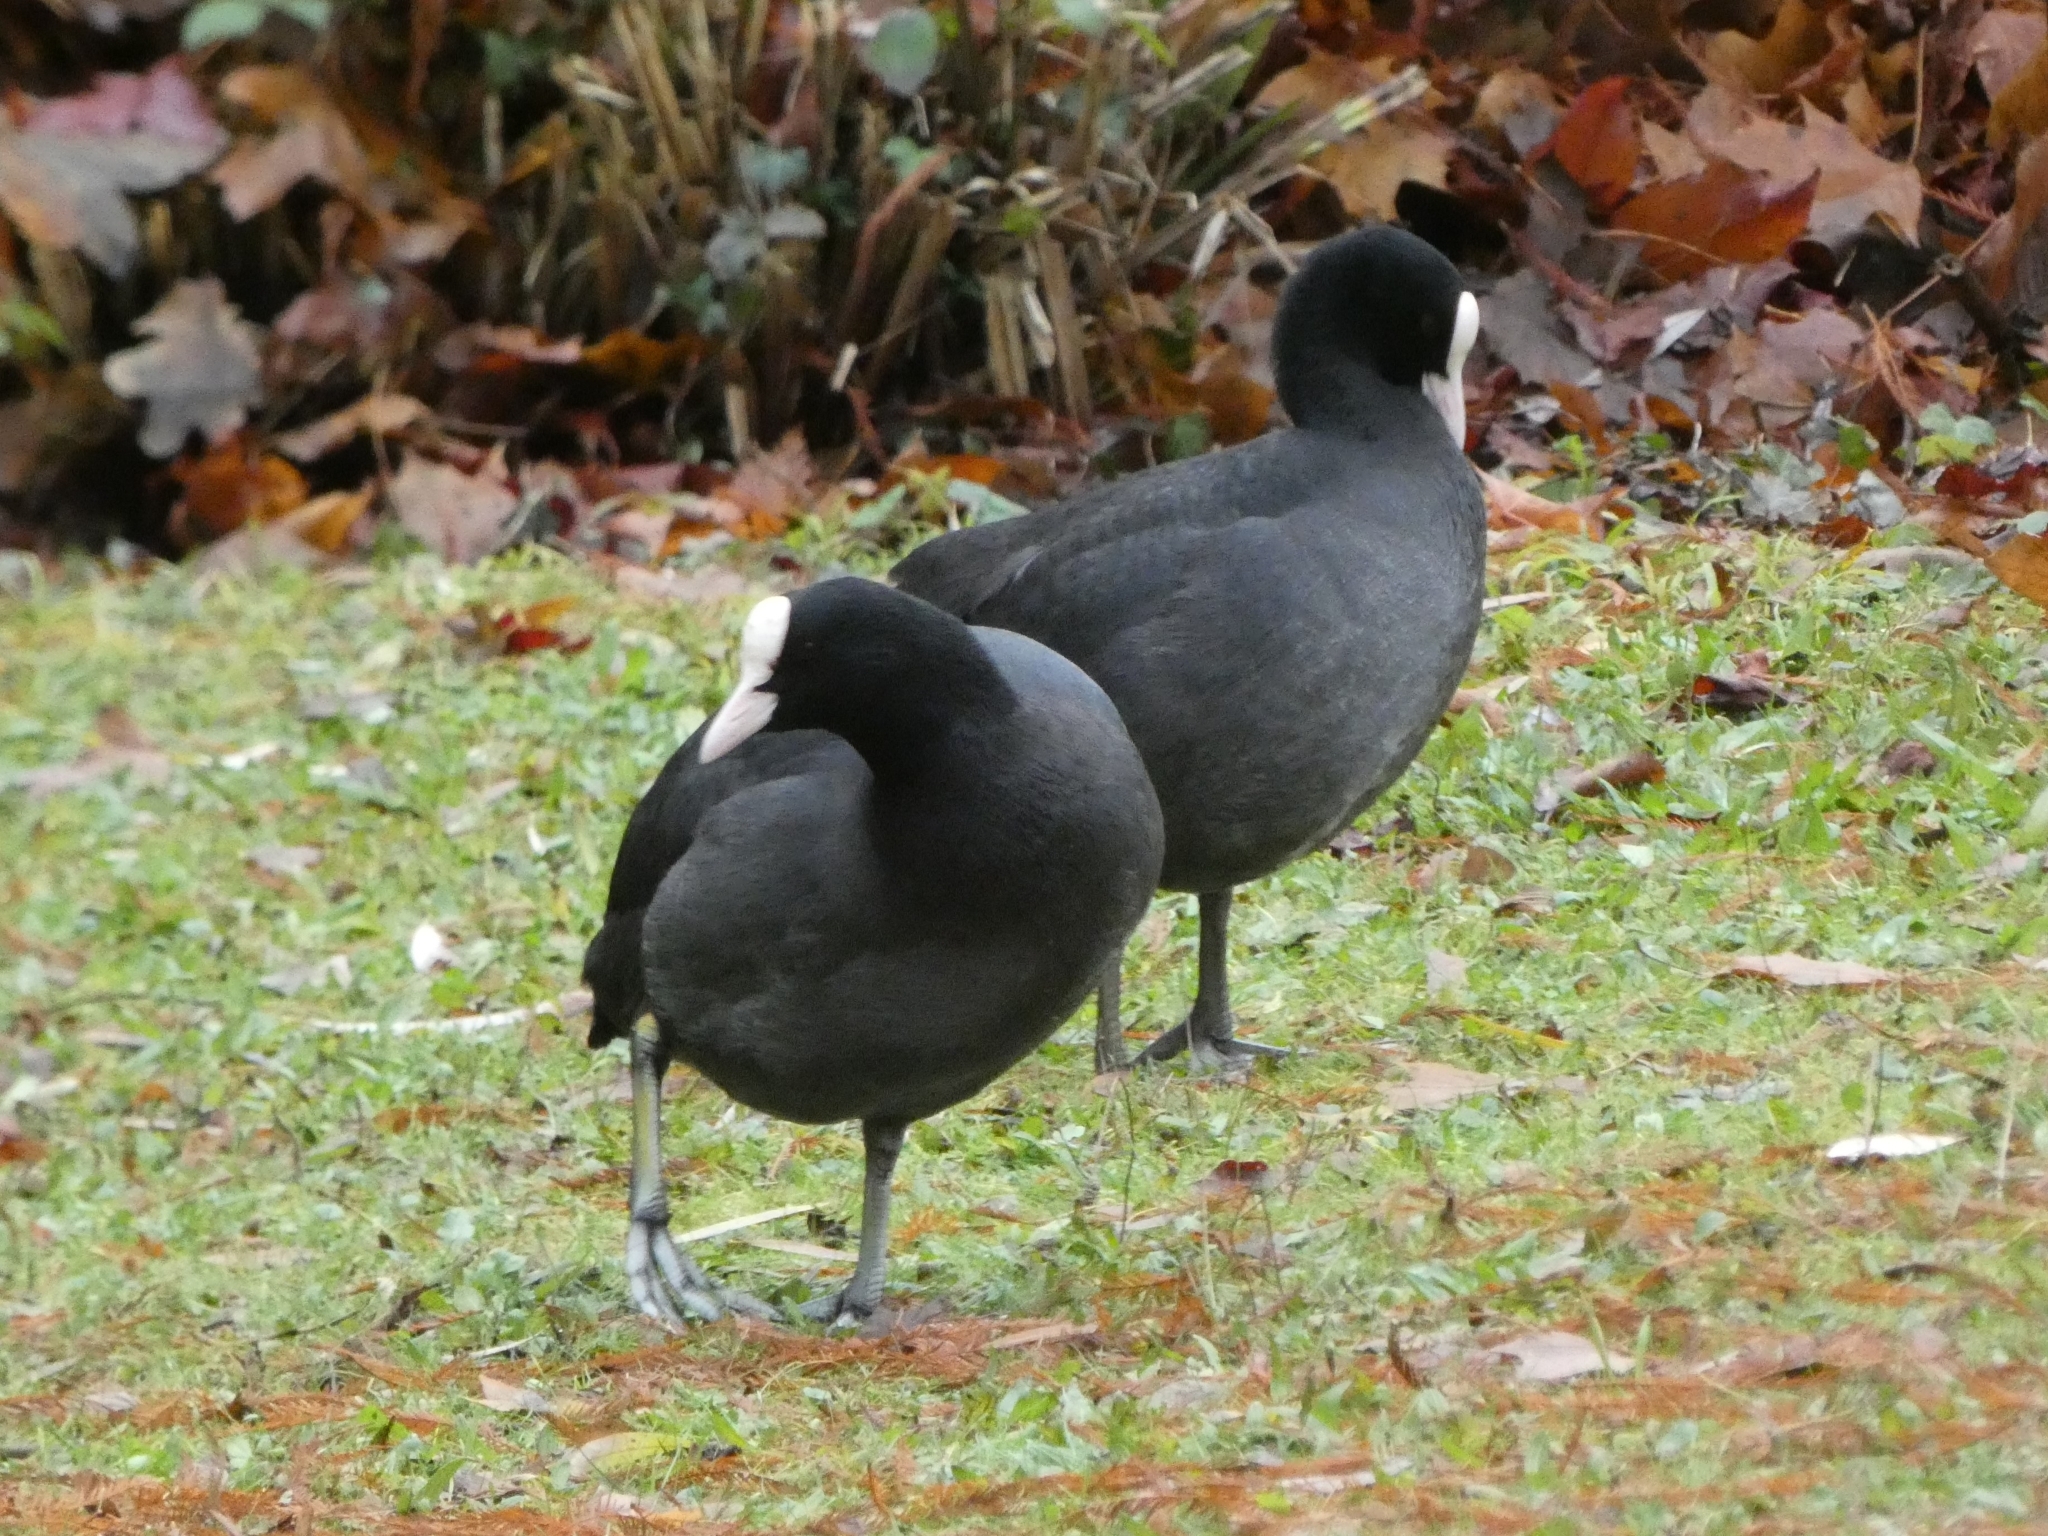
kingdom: Animalia
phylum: Chordata
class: Aves
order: Gruiformes
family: Rallidae
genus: Fulica
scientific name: Fulica atra
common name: Eurasian coot
